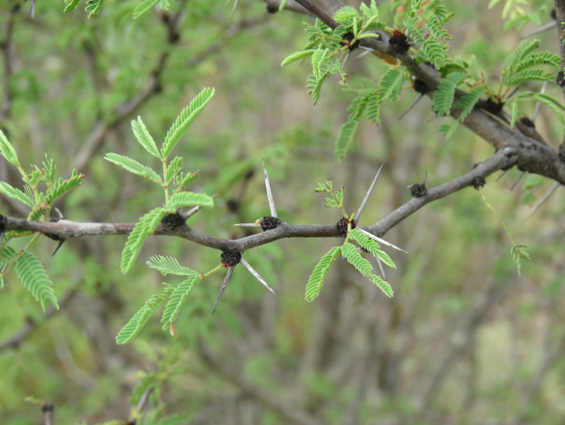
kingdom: Plantae
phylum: Tracheophyta
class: Magnoliopsida
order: Fabales
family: Fabaceae
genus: Vachellia
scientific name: Vachellia schaffneri
